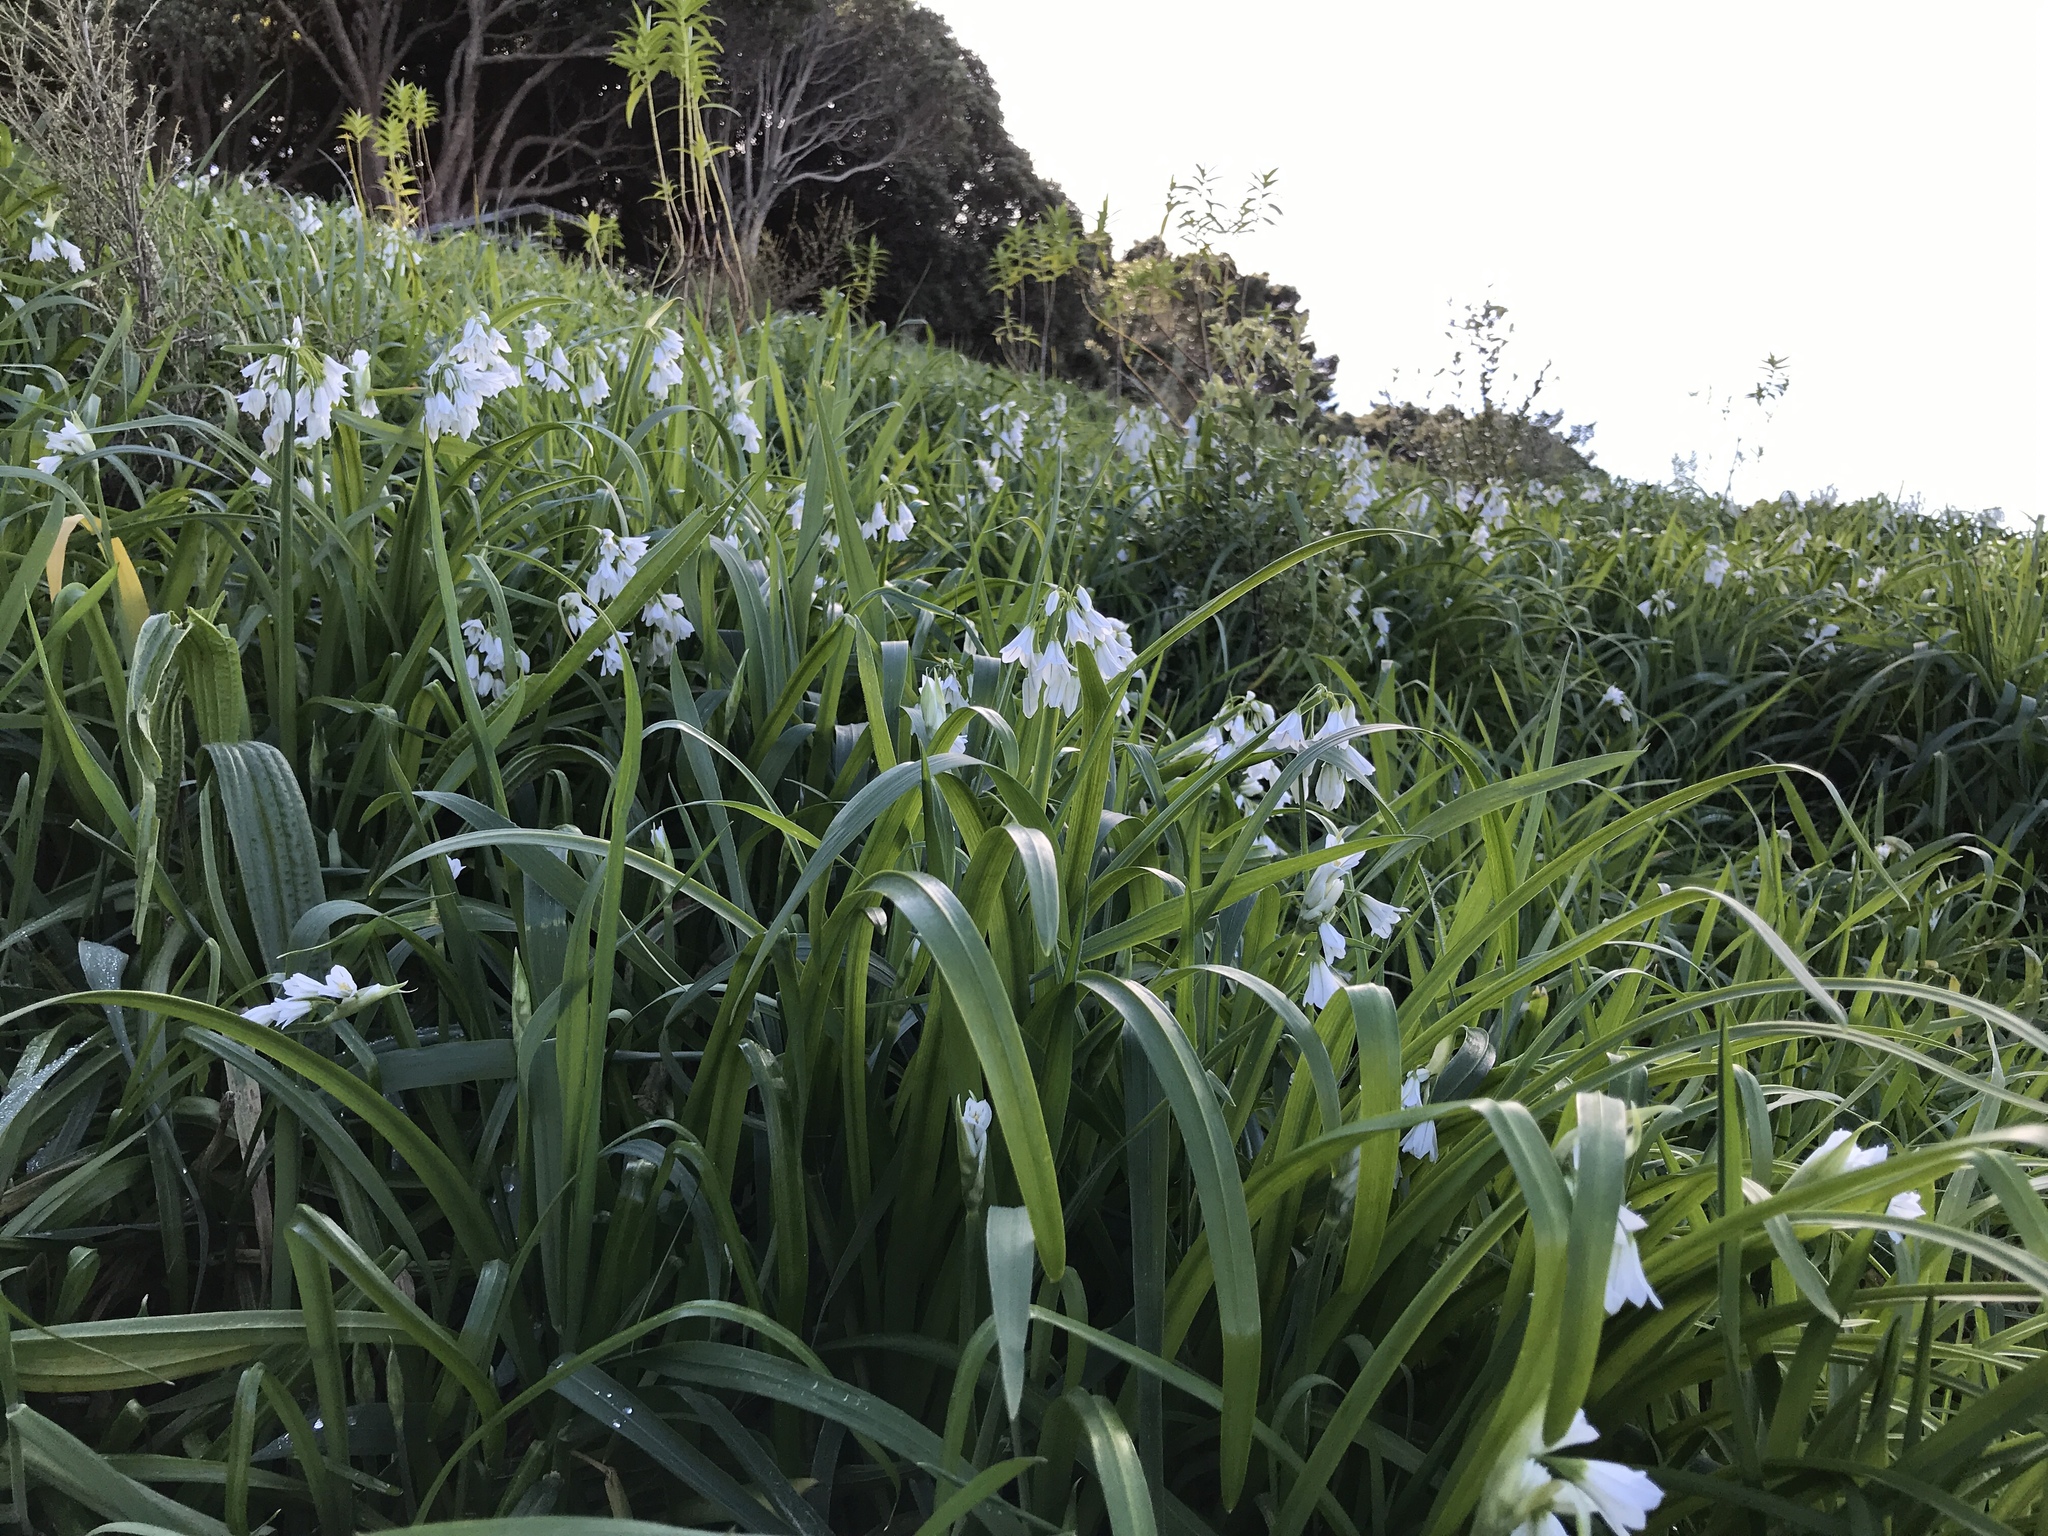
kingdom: Plantae
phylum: Tracheophyta
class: Liliopsida
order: Asparagales
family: Amaryllidaceae
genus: Allium
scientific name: Allium triquetrum
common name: Three-cornered garlic
